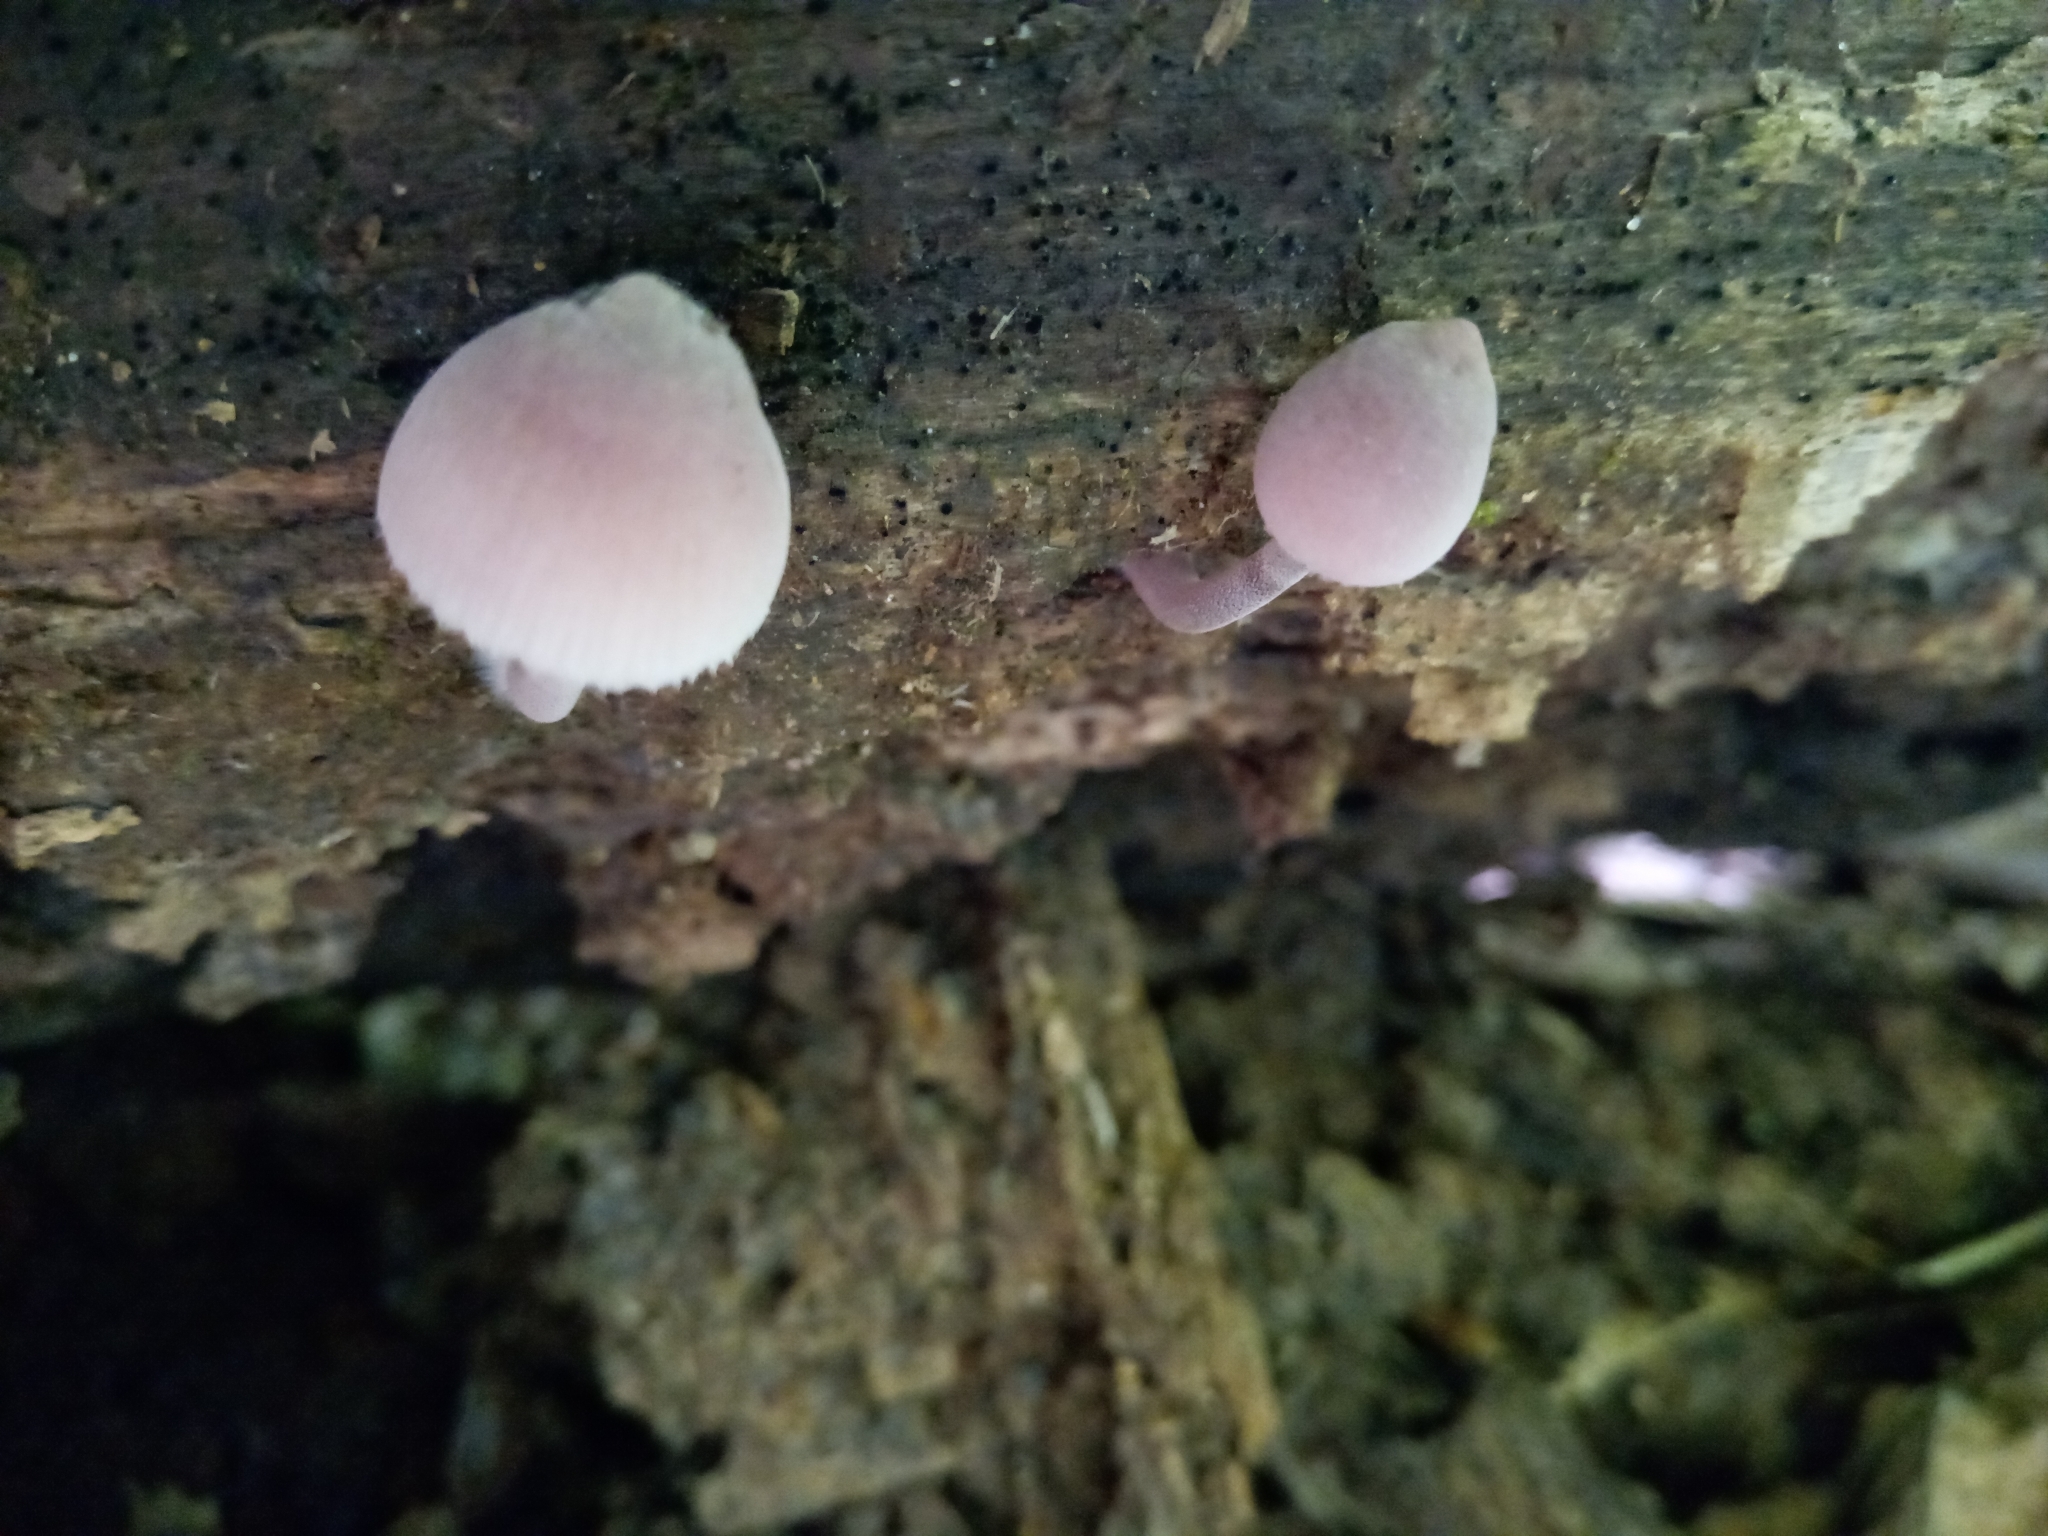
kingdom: Fungi
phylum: Basidiomycota
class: Agaricomycetes
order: Agaricales
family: Mycenaceae
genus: Mycena
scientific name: Mycena haematopus
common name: Burgundydrop bonnet
